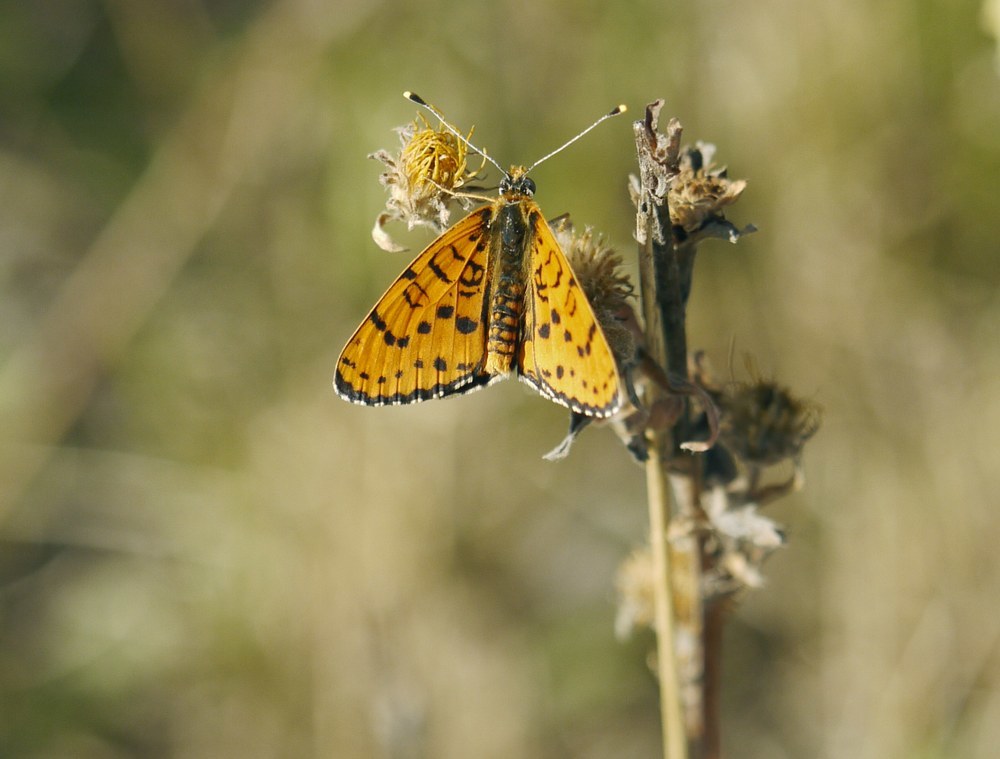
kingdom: Animalia
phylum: Arthropoda
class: Insecta
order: Lepidoptera
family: Nymphalidae
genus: Melitaea
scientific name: Melitaea didyma
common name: Spotted fritillary
